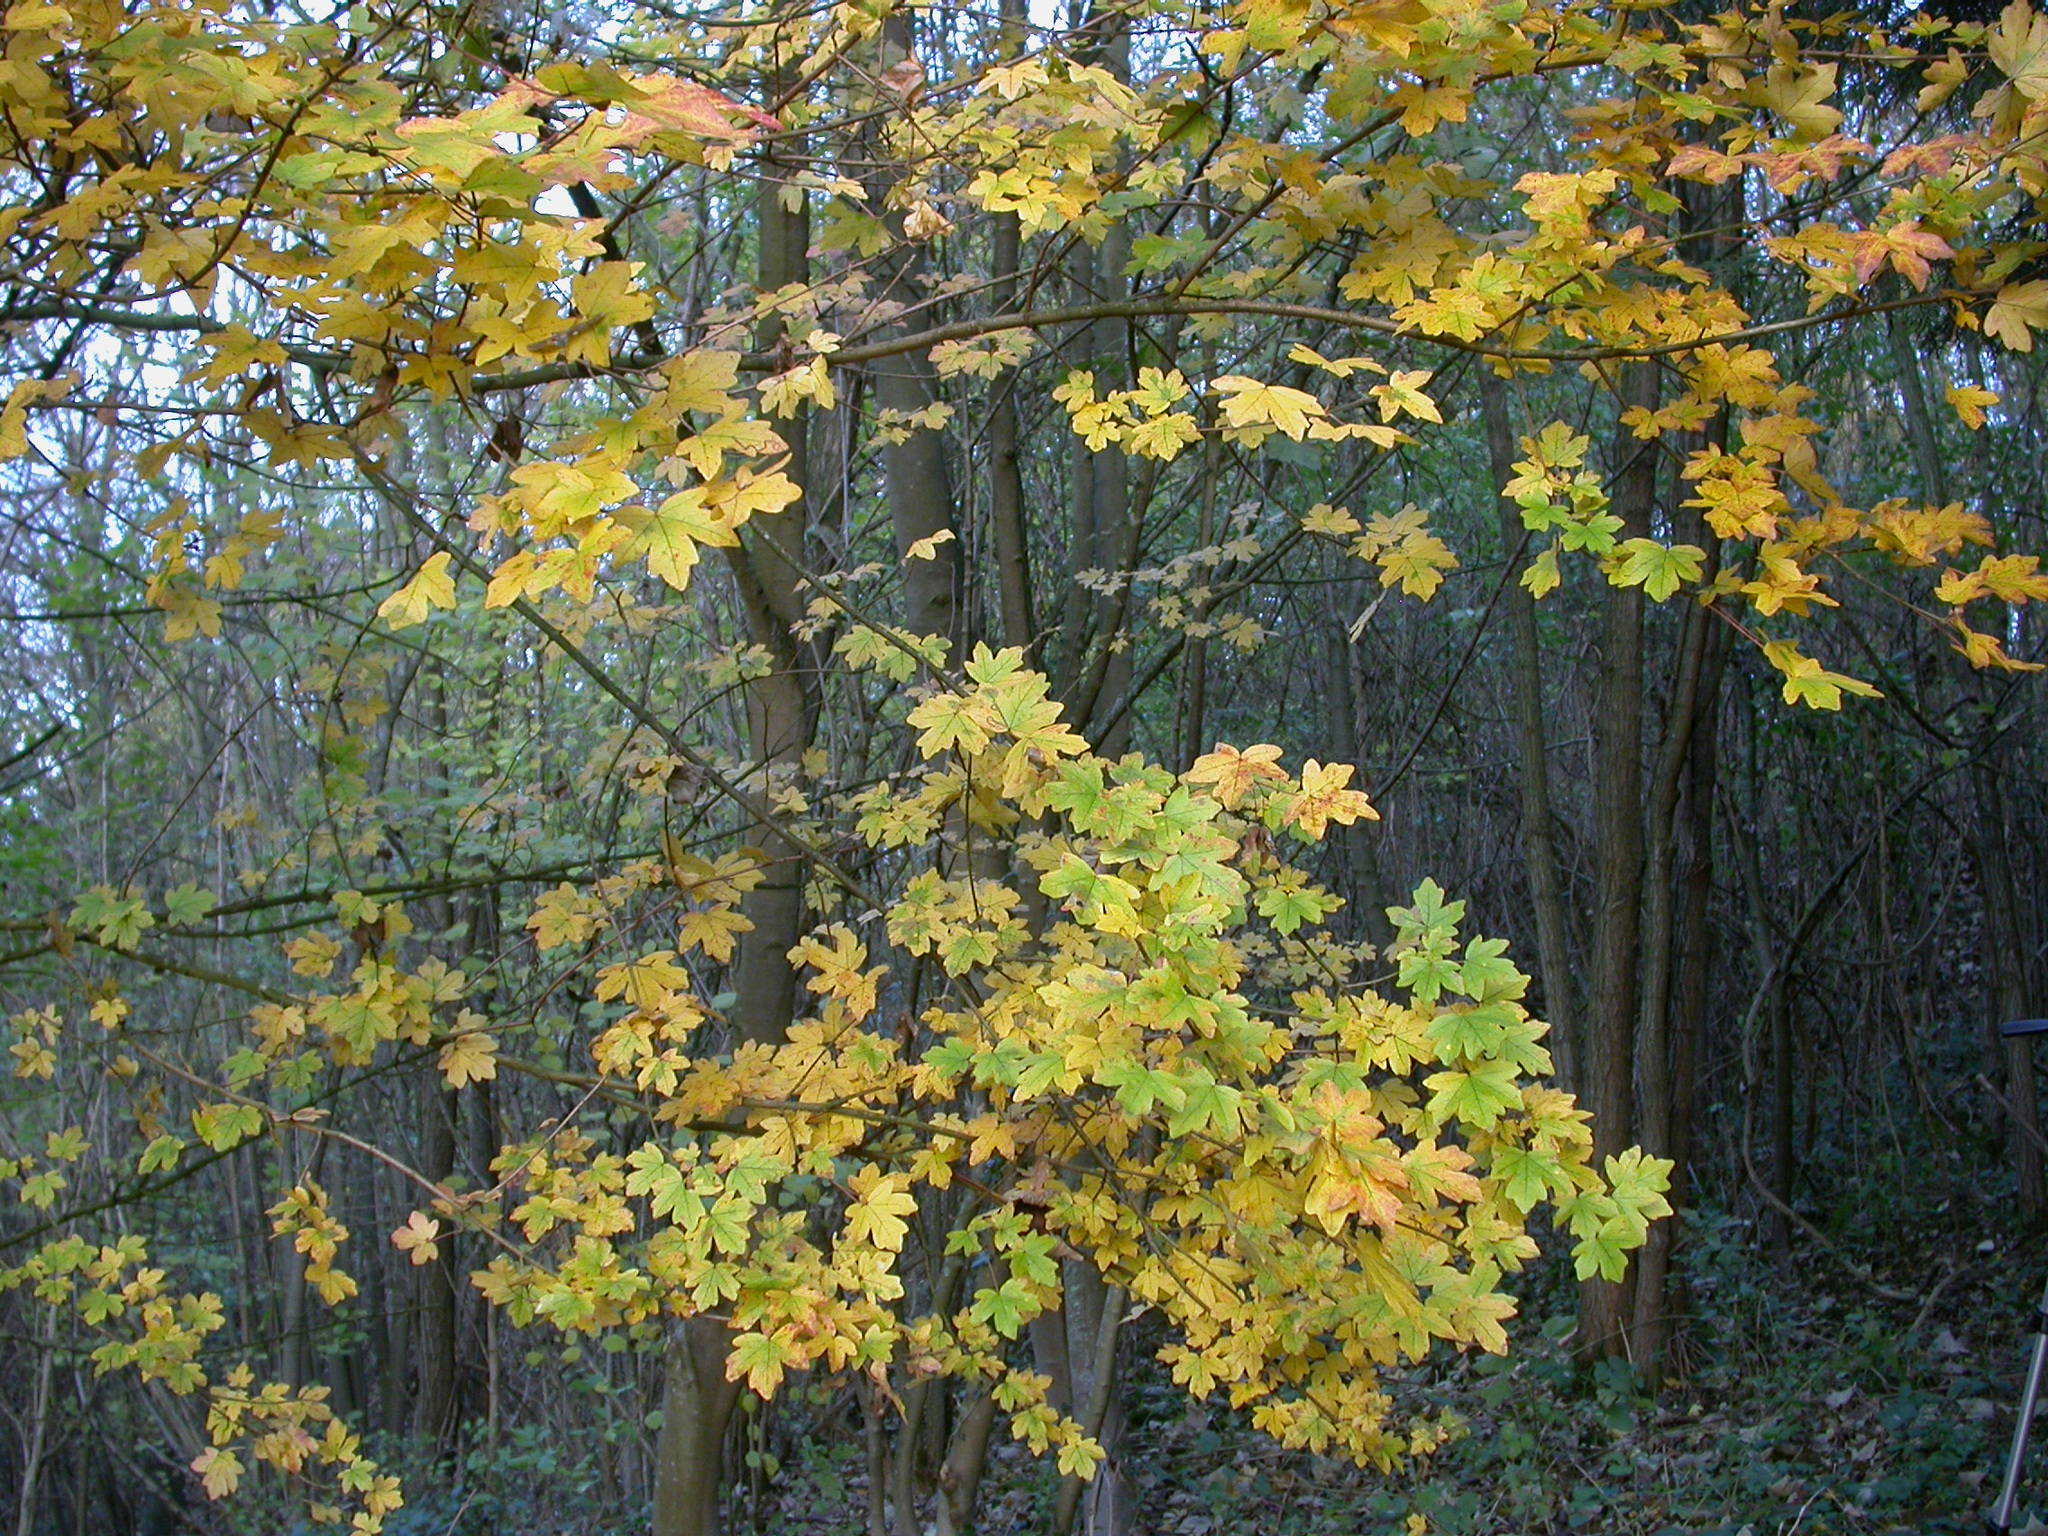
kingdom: Plantae
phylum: Tracheophyta
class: Magnoliopsida
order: Sapindales
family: Sapindaceae
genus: Acer
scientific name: Acer campestre
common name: Field maple
